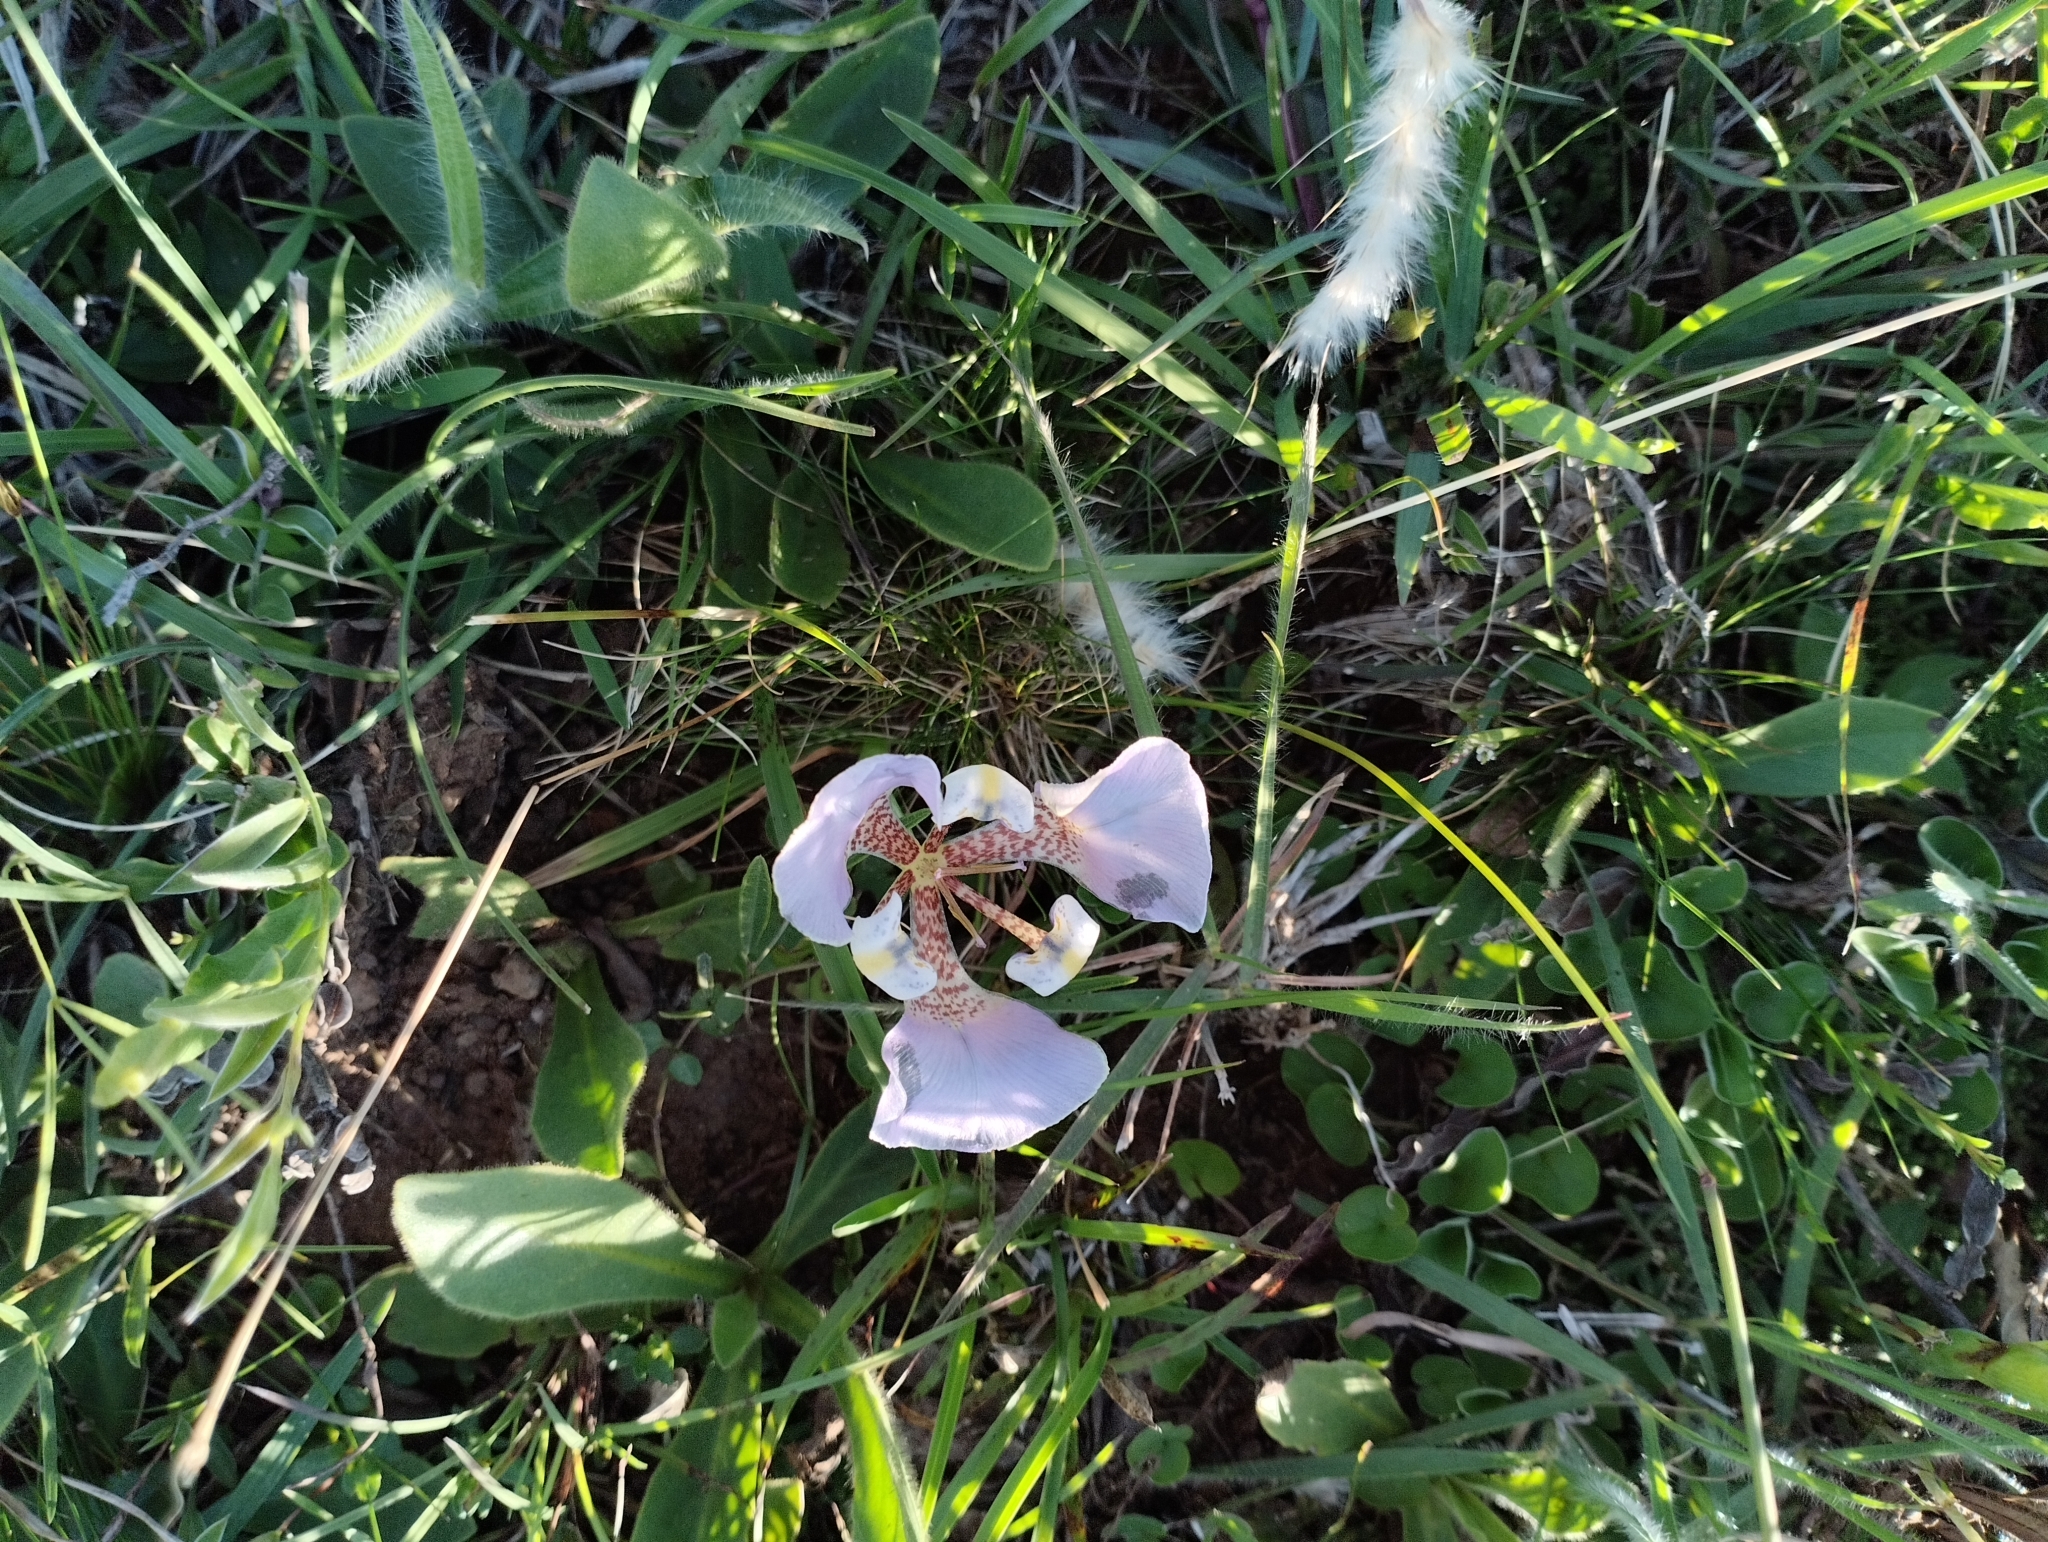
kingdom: Plantae
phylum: Tracheophyta
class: Liliopsida
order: Asparagales
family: Iridaceae
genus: Cypella
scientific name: Cypella unguiculata
